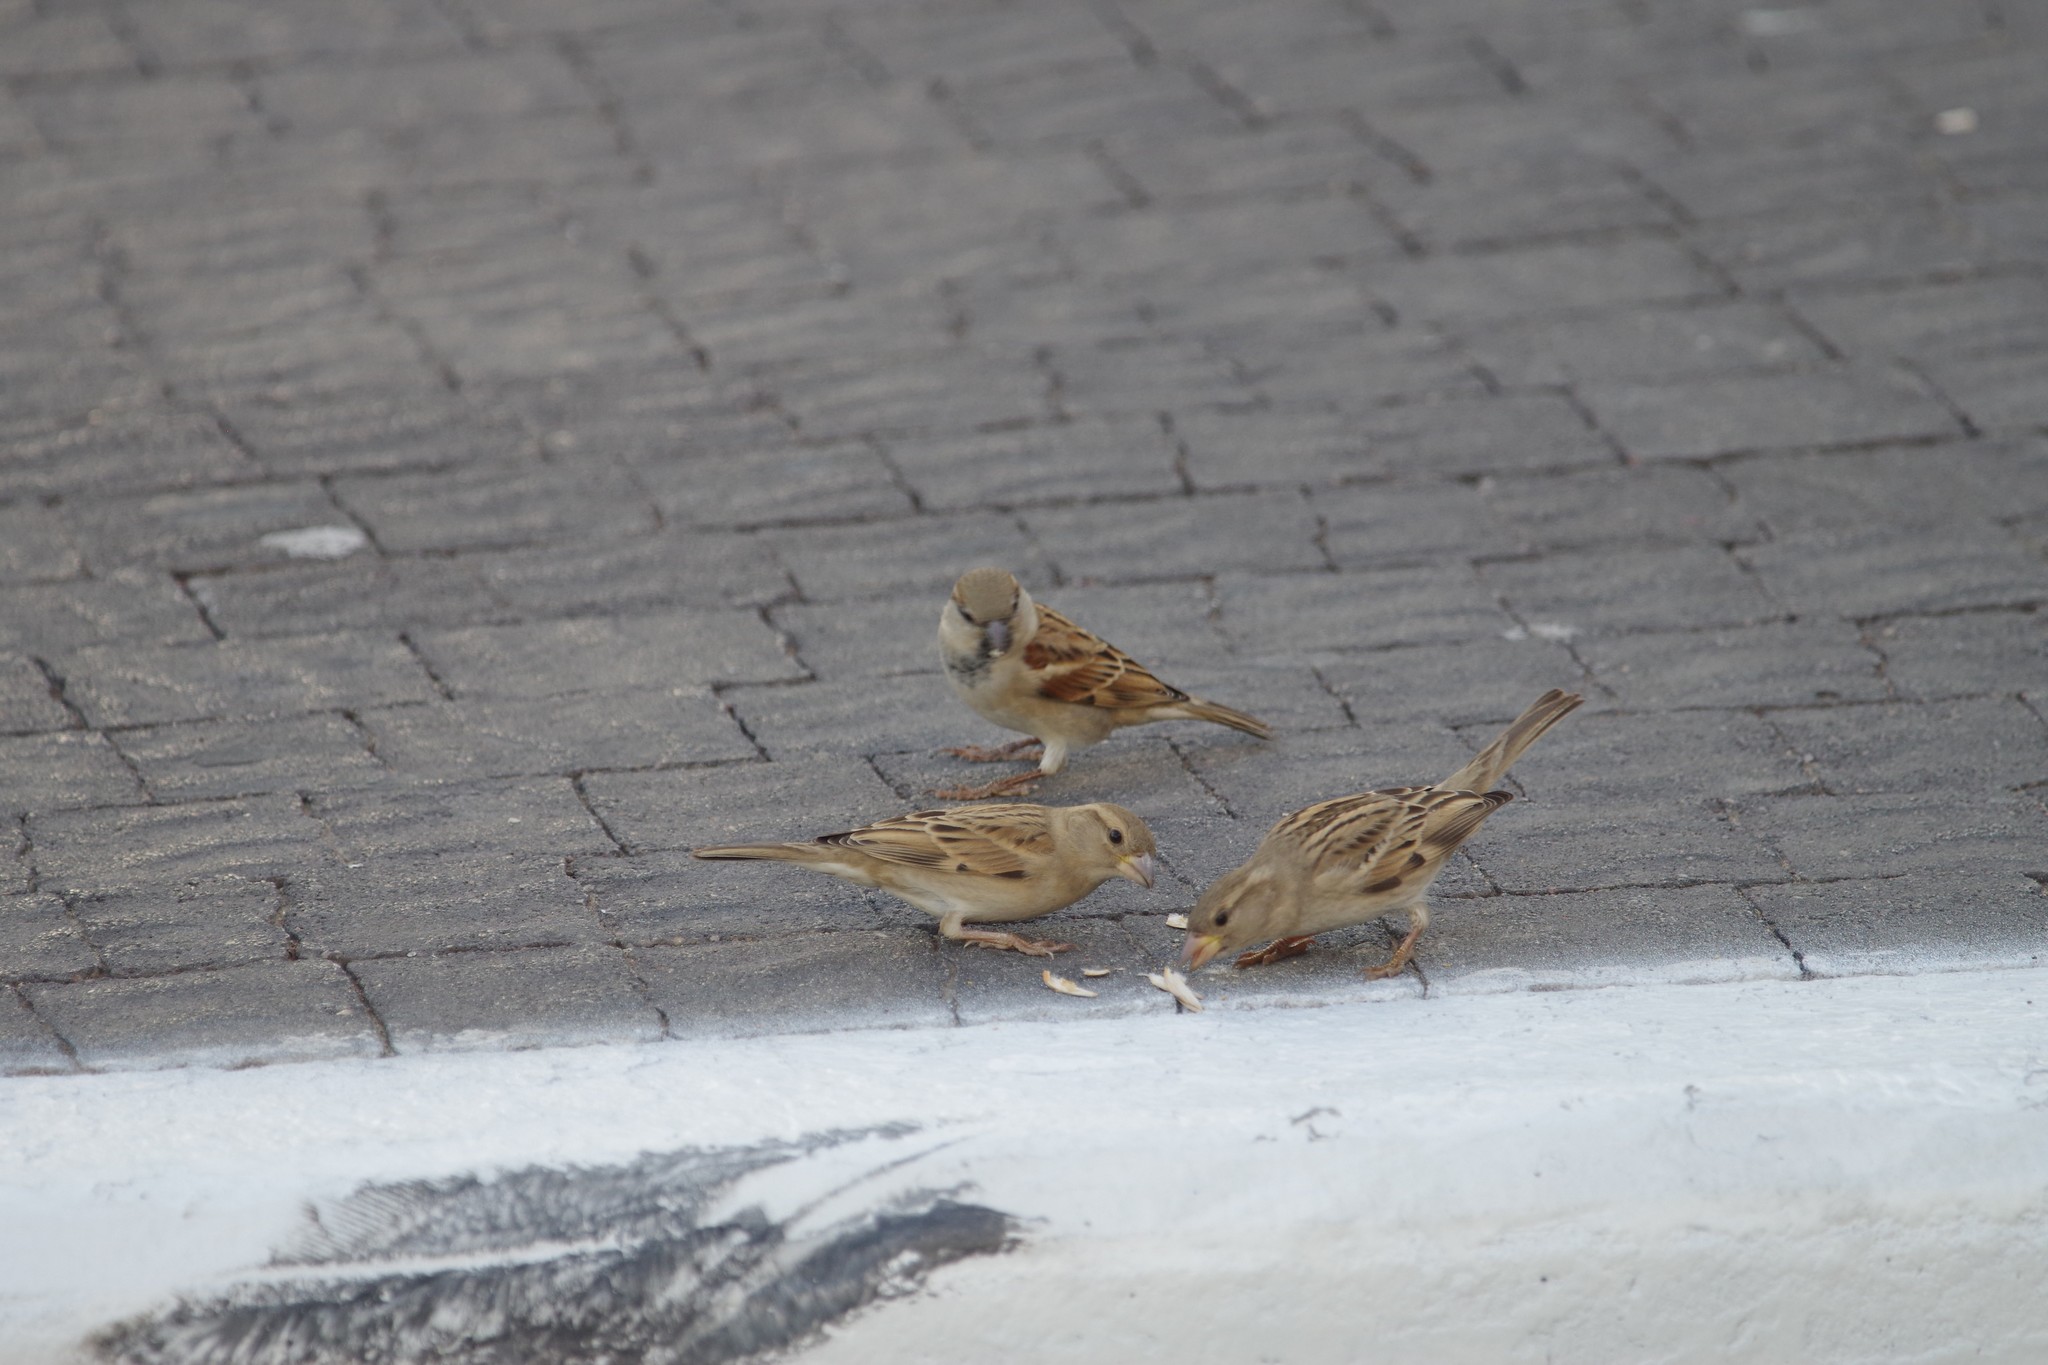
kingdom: Animalia
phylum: Chordata
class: Aves
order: Passeriformes
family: Passeridae
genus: Passer
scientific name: Passer domesticus
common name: House sparrow
